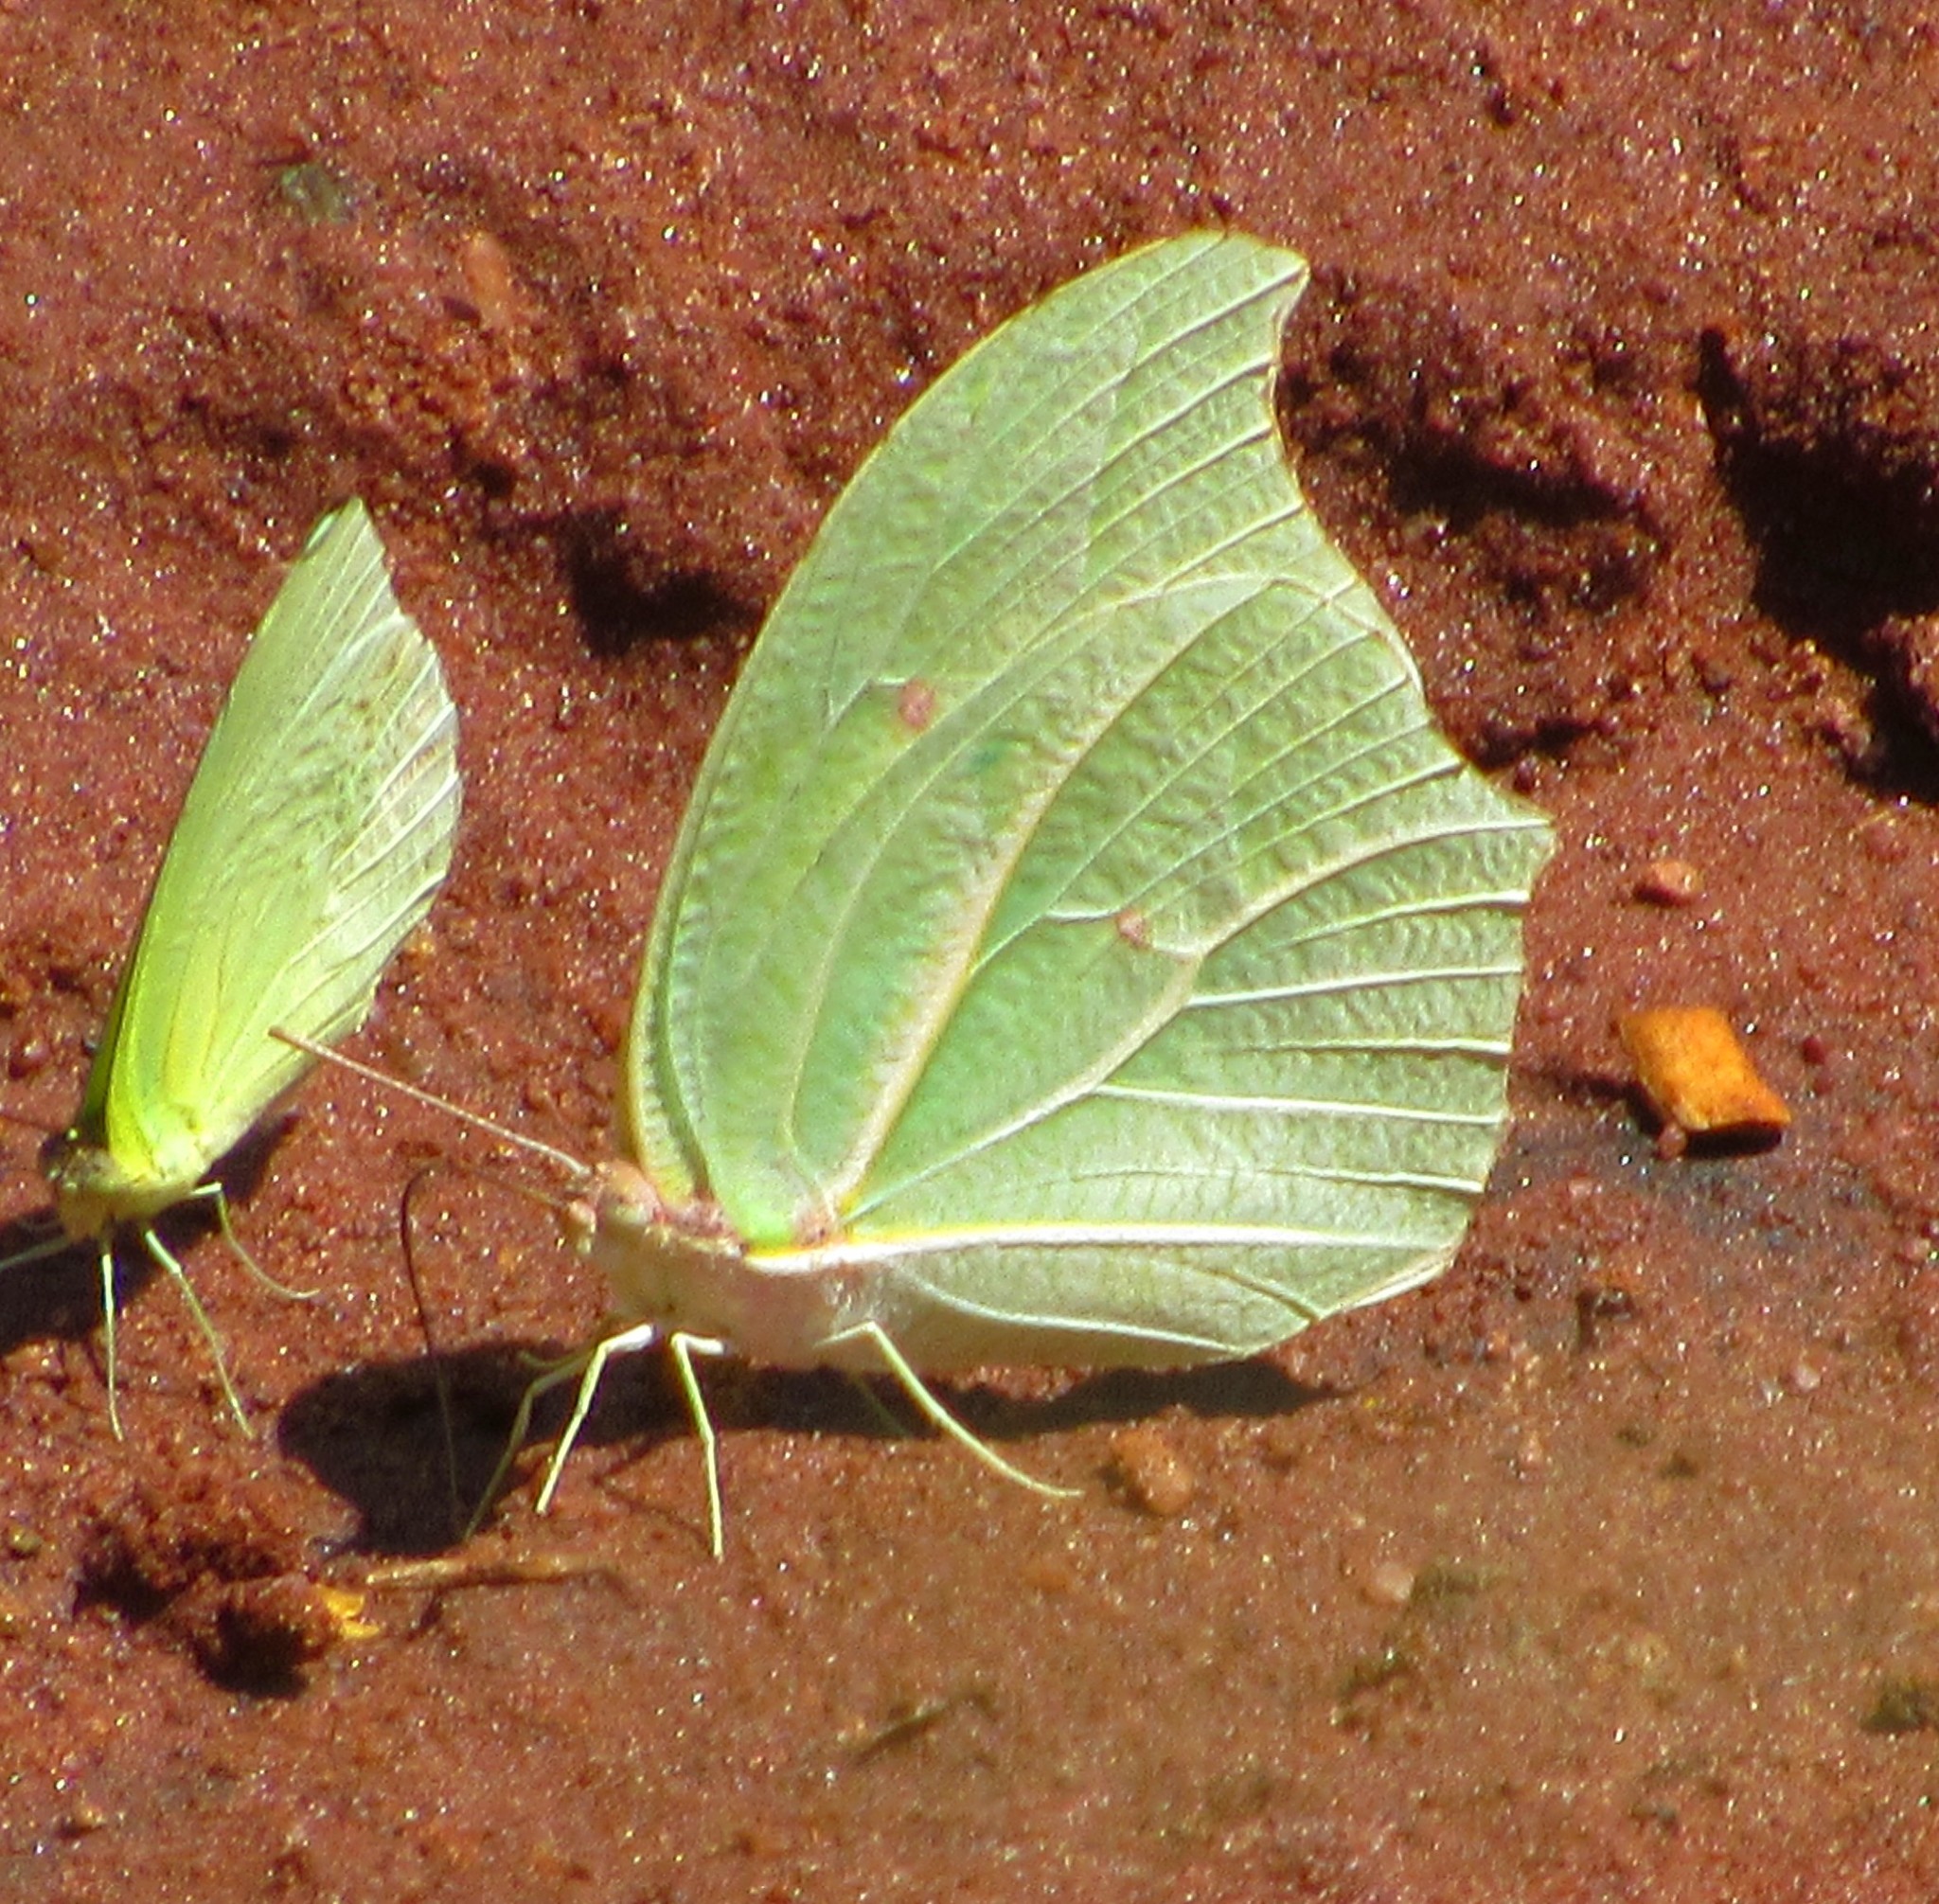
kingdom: Animalia
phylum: Arthropoda
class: Insecta
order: Lepidoptera
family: Pieridae
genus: Anteos
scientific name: Anteos clorinde
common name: White angled sulphur
